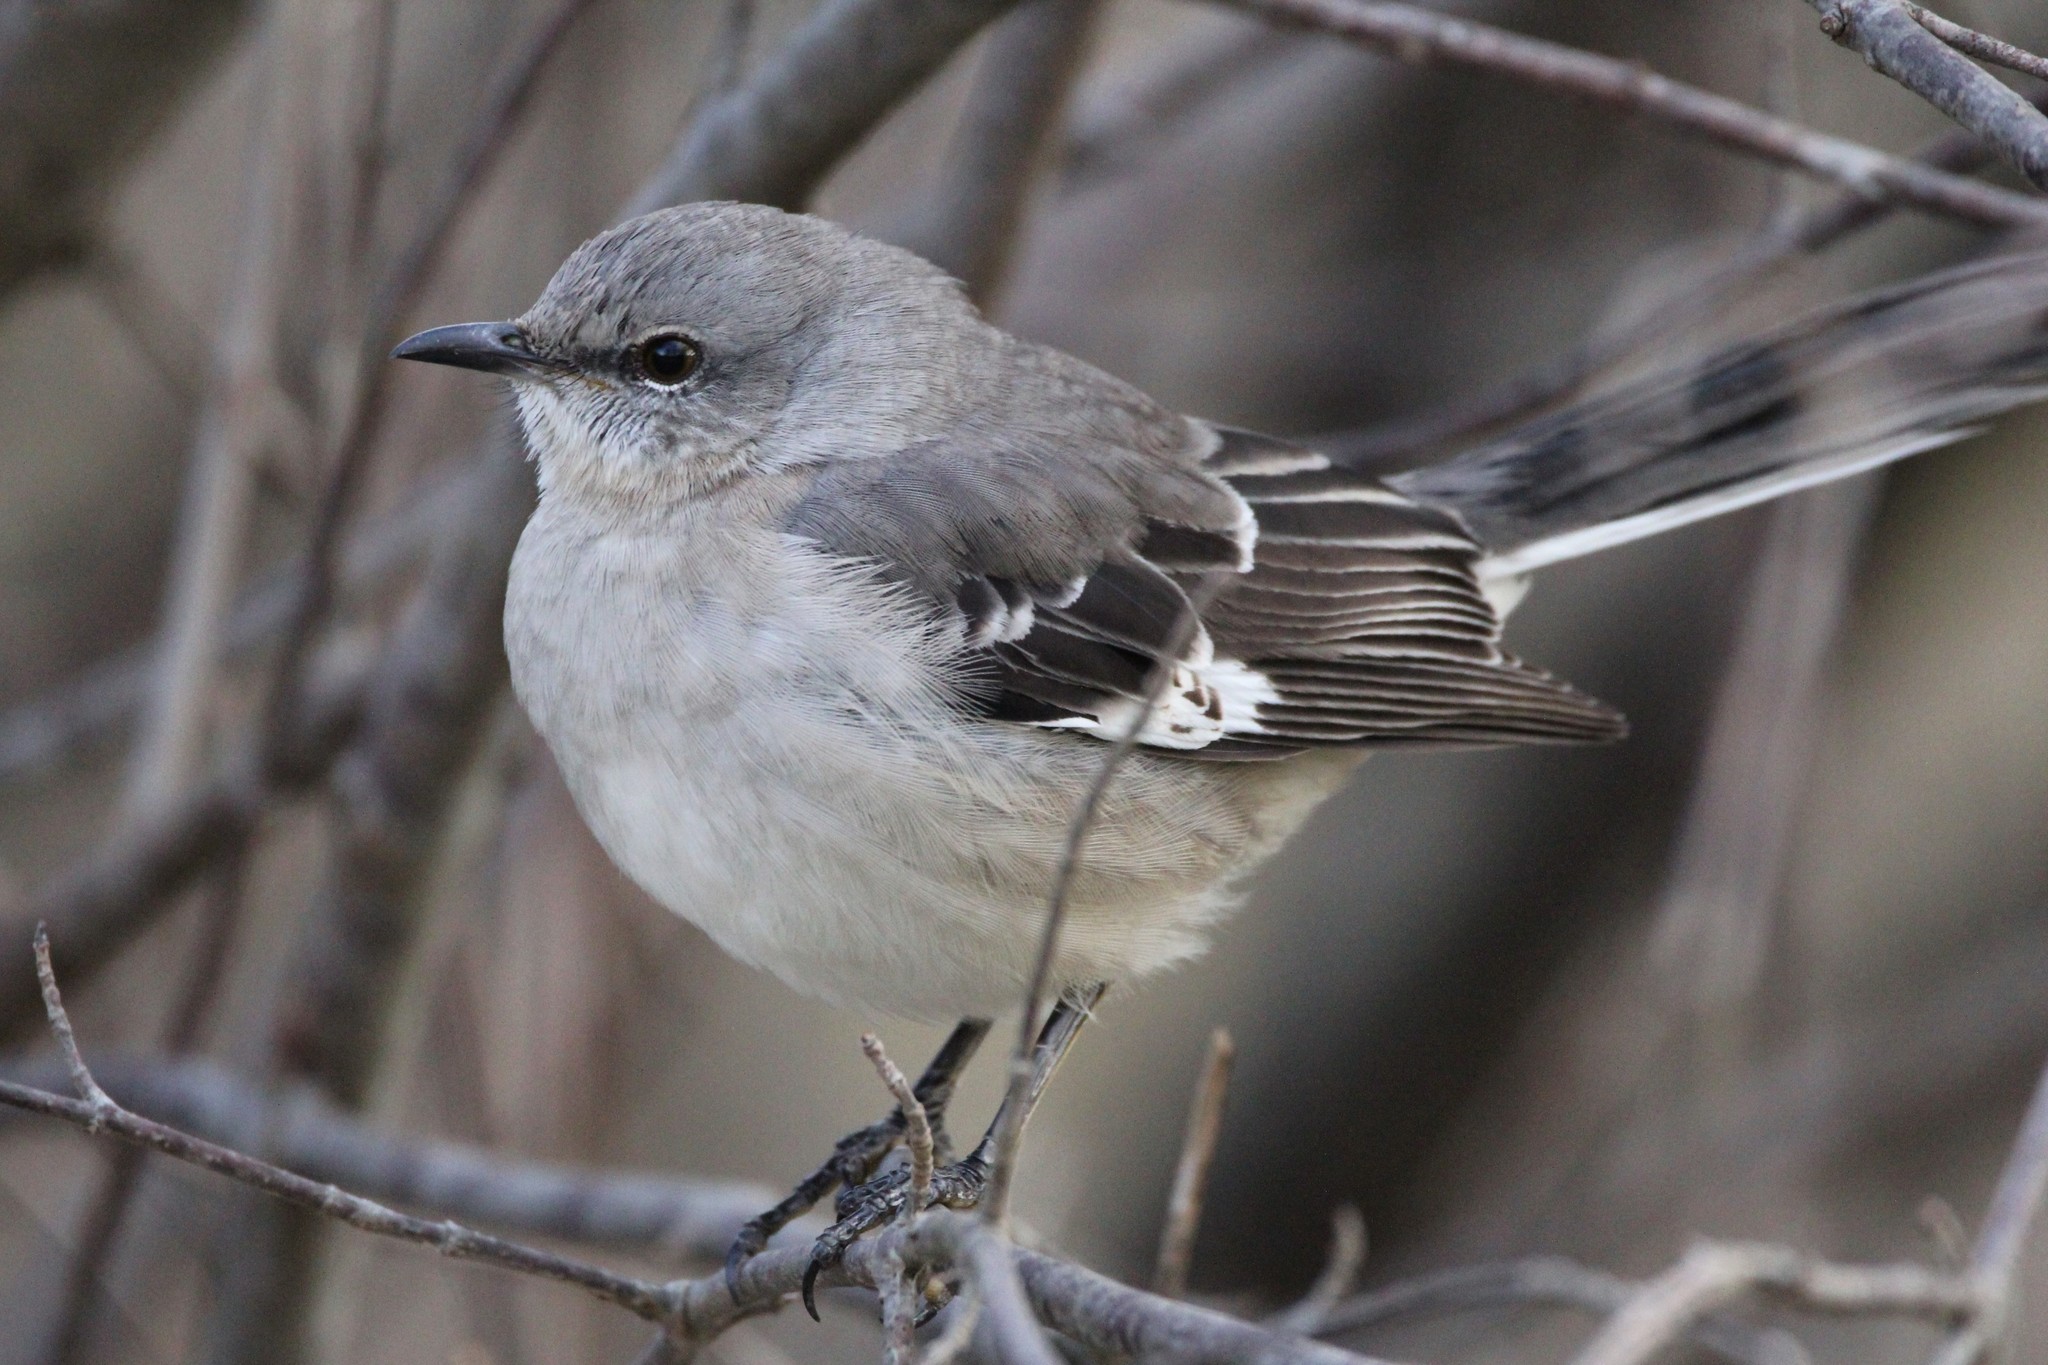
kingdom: Animalia
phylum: Chordata
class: Aves
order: Passeriformes
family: Mimidae
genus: Mimus
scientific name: Mimus polyglottos
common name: Northern mockingbird
